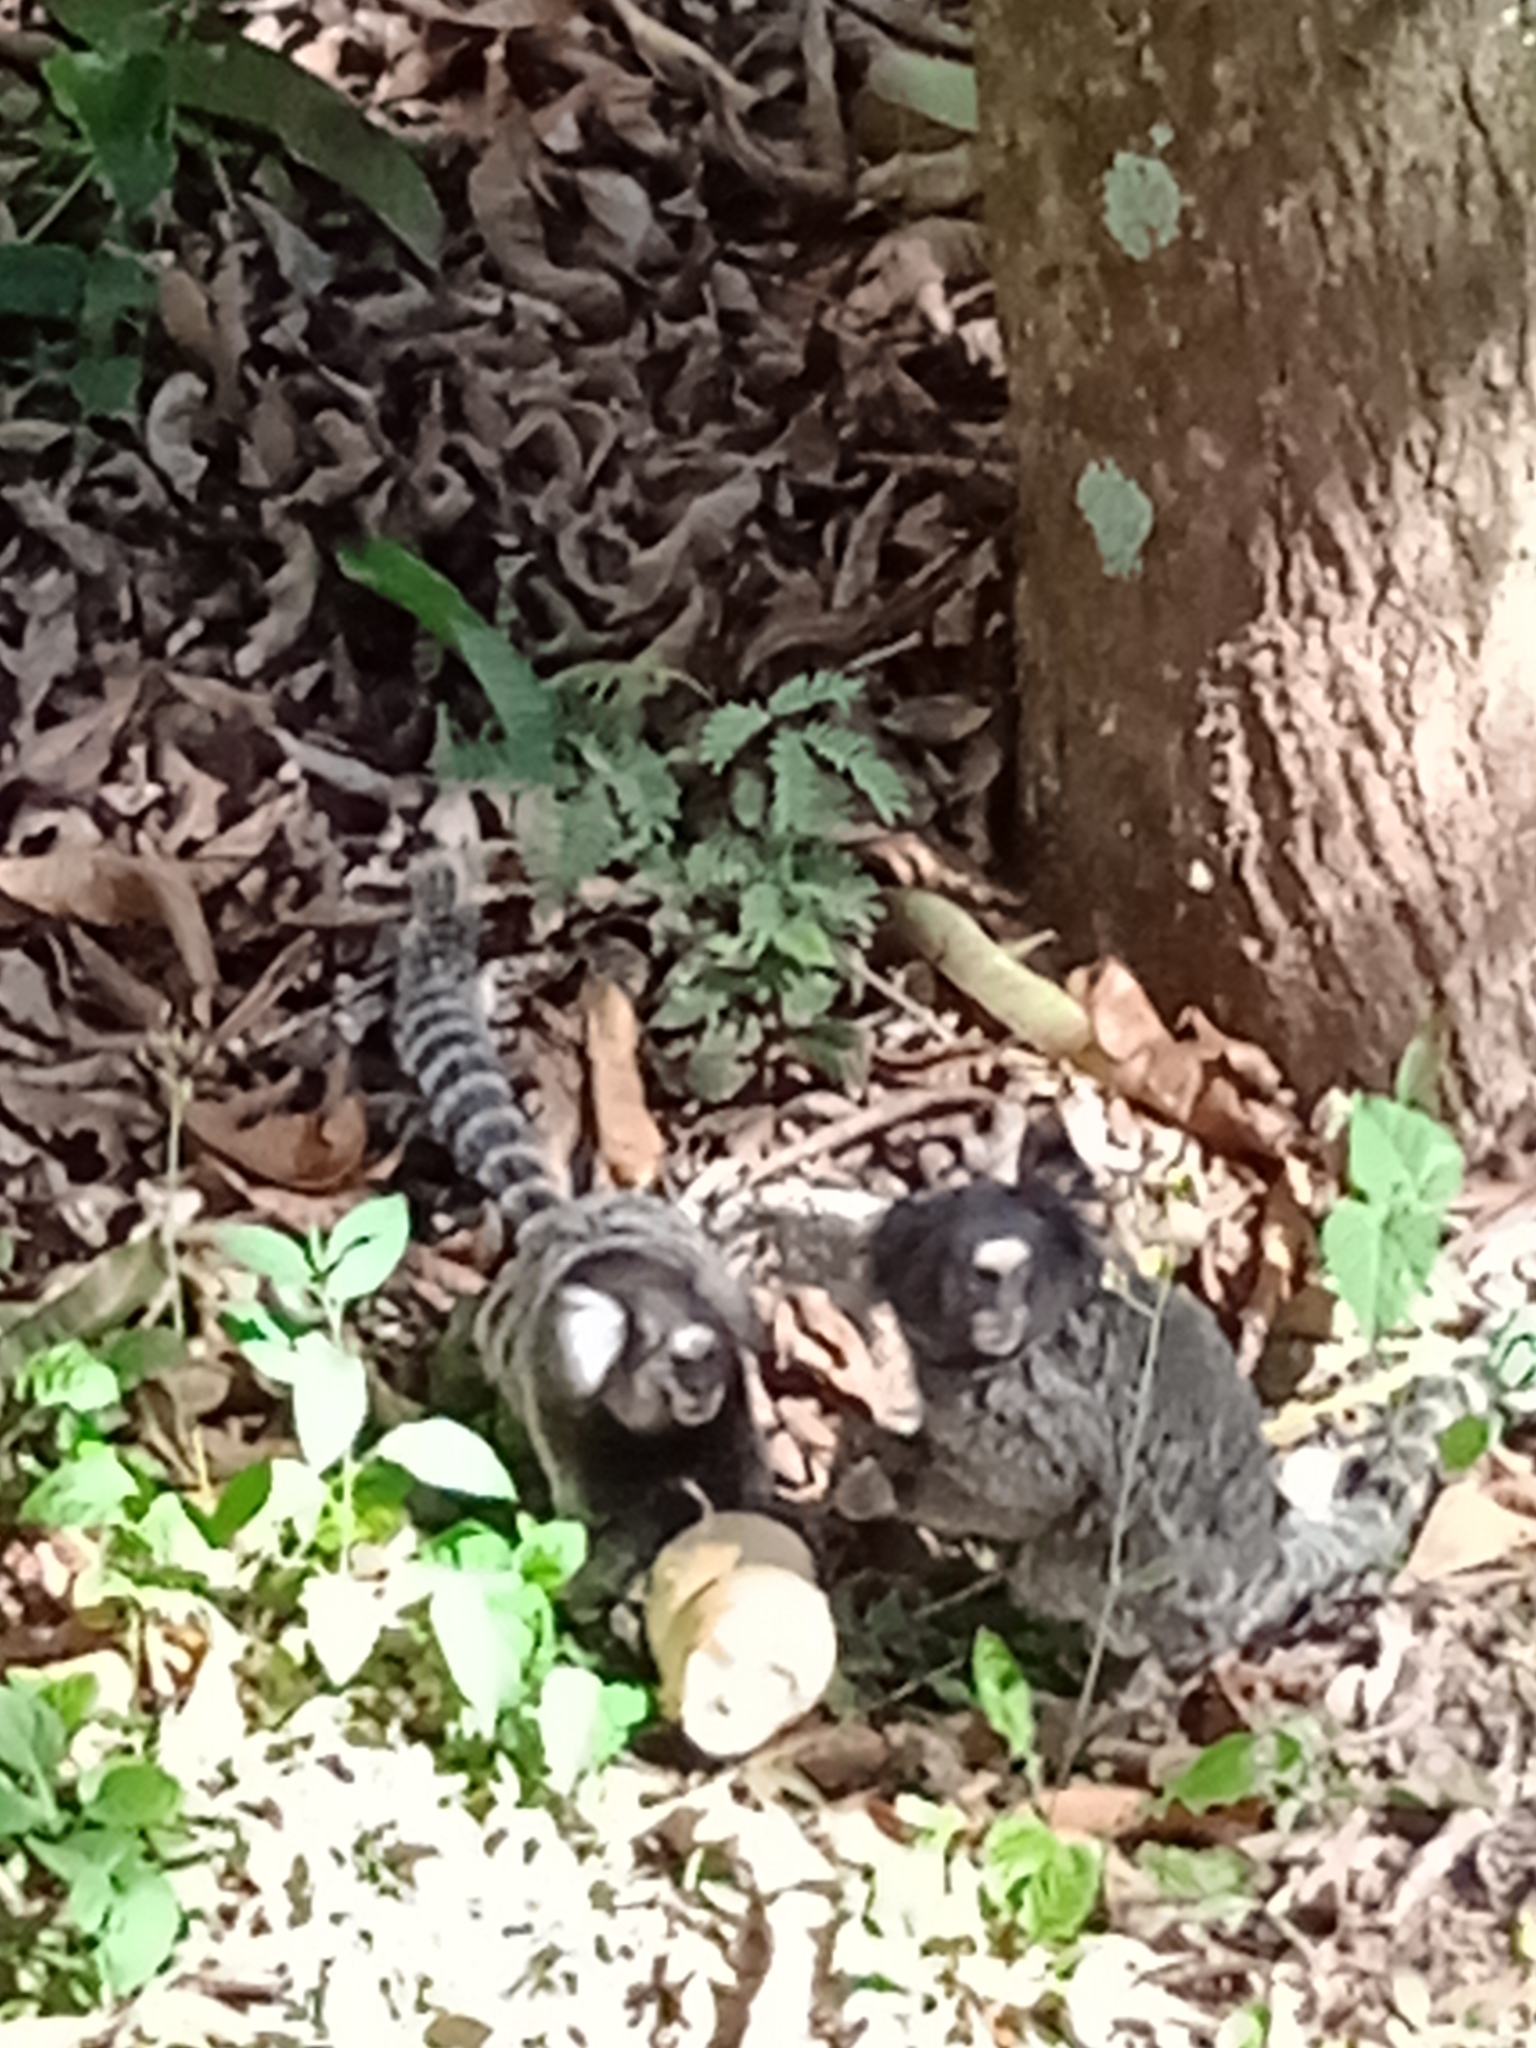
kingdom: Animalia
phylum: Chordata
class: Mammalia
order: Primates
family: Callitrichidae
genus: Callithrix
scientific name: Callithrix penicillata
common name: Black-tufted marmoset
